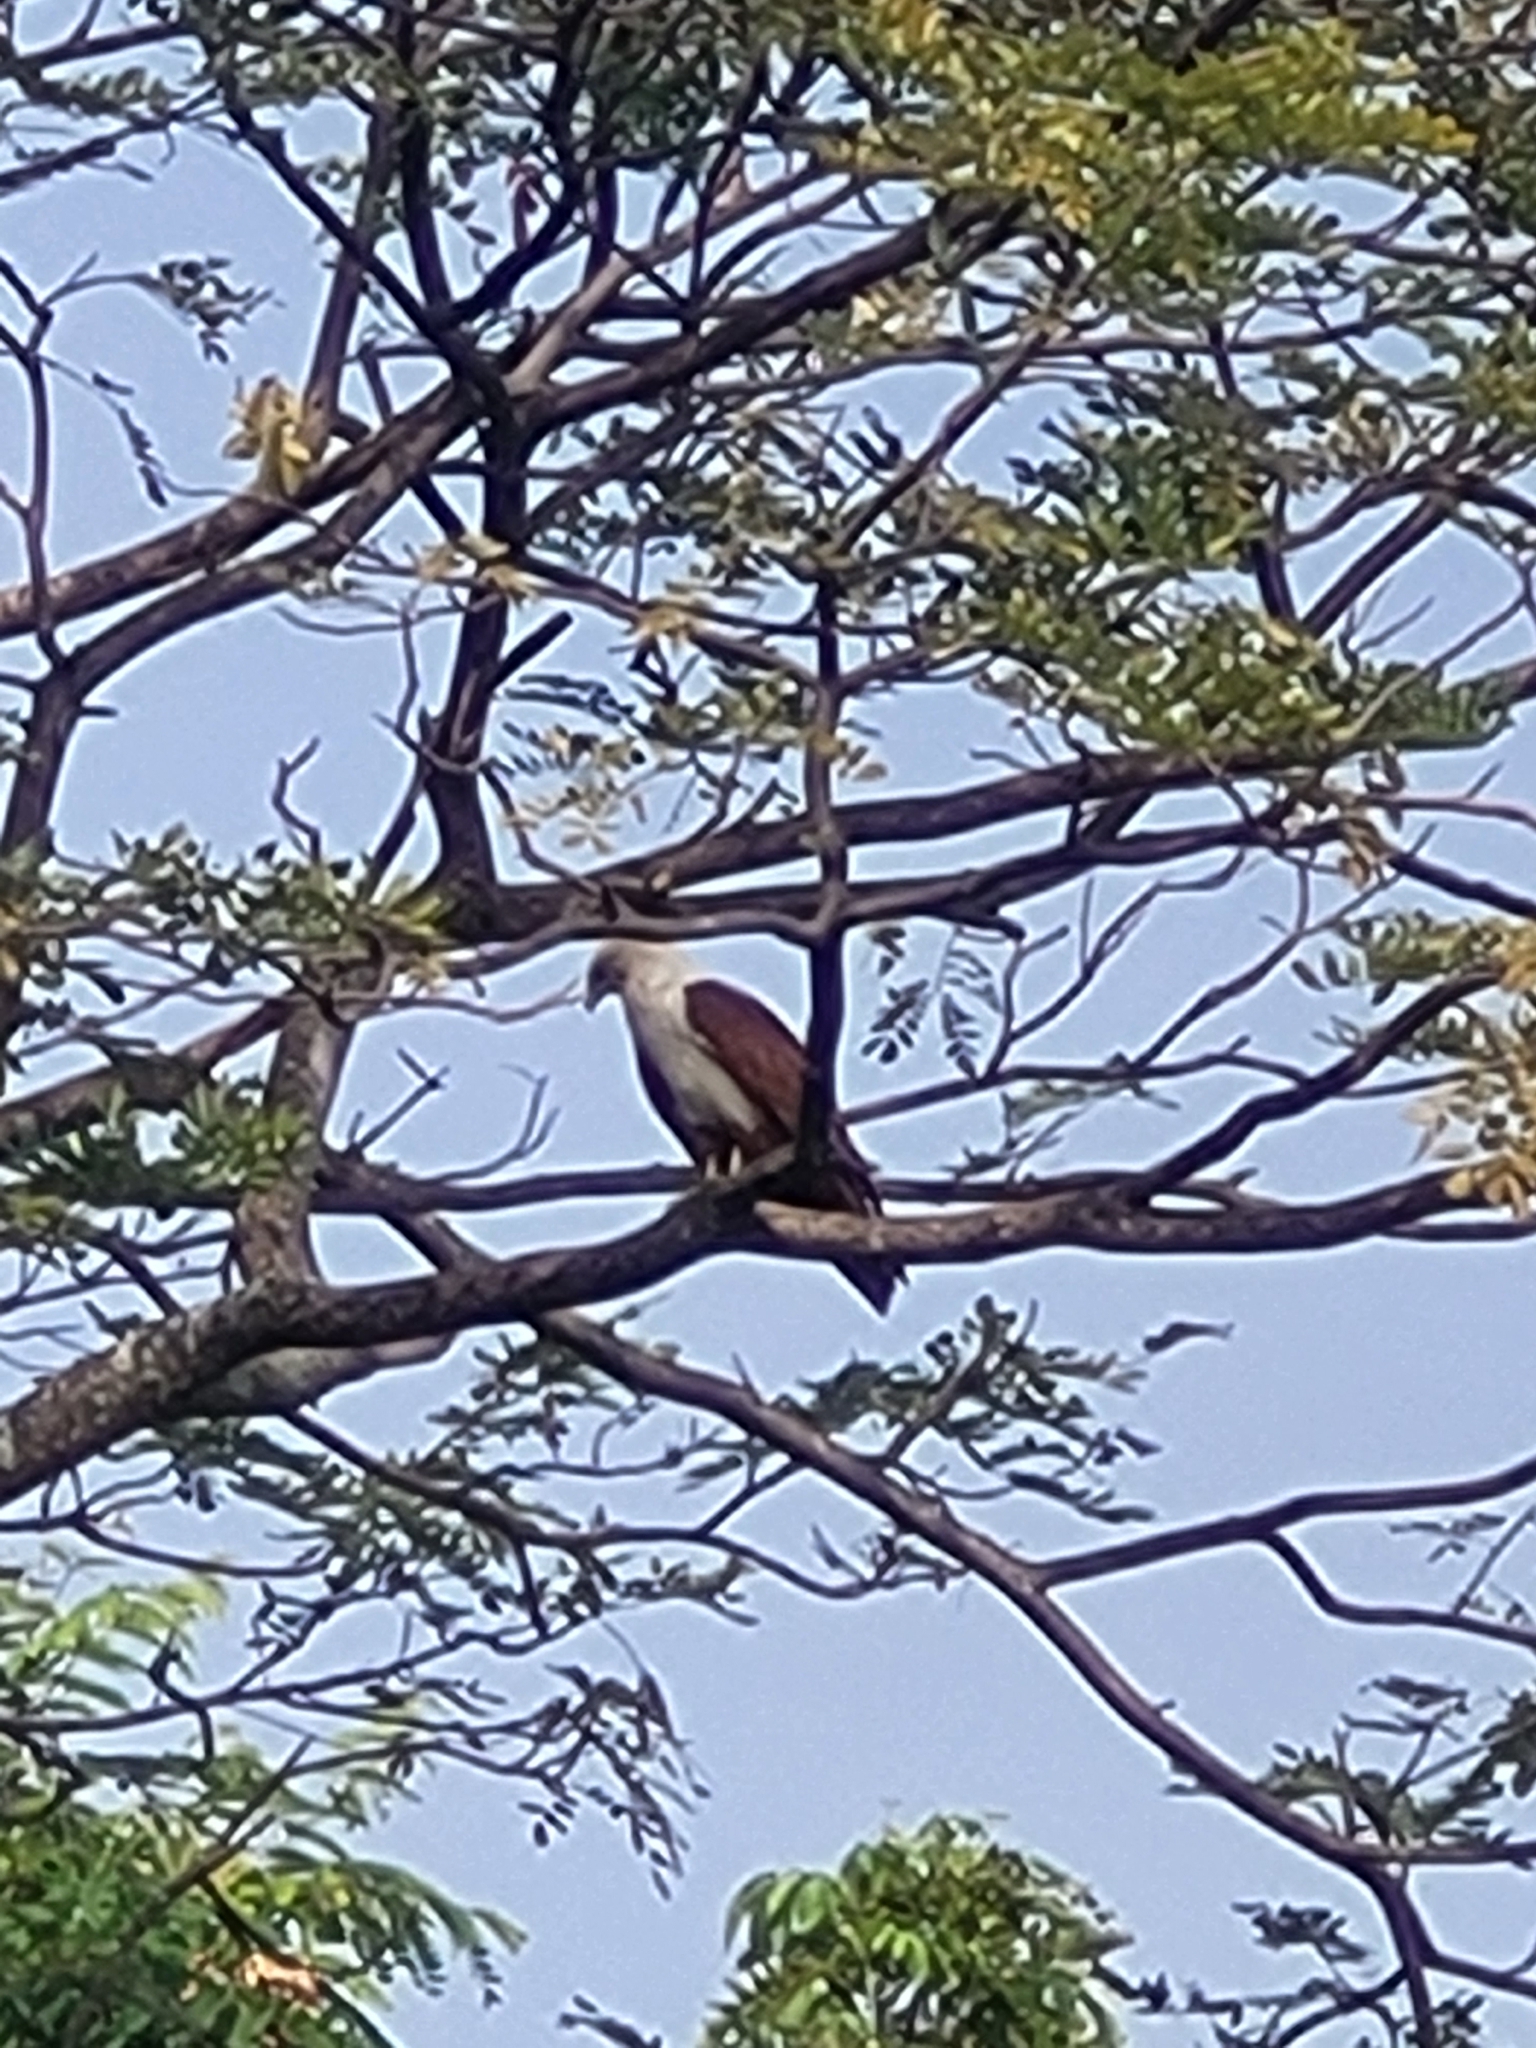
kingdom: Animalia
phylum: Chordata
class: Aves
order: Accipitriformes
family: Accipitridae
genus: Haliastur
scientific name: Haliastur indus
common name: Brahminy kite
